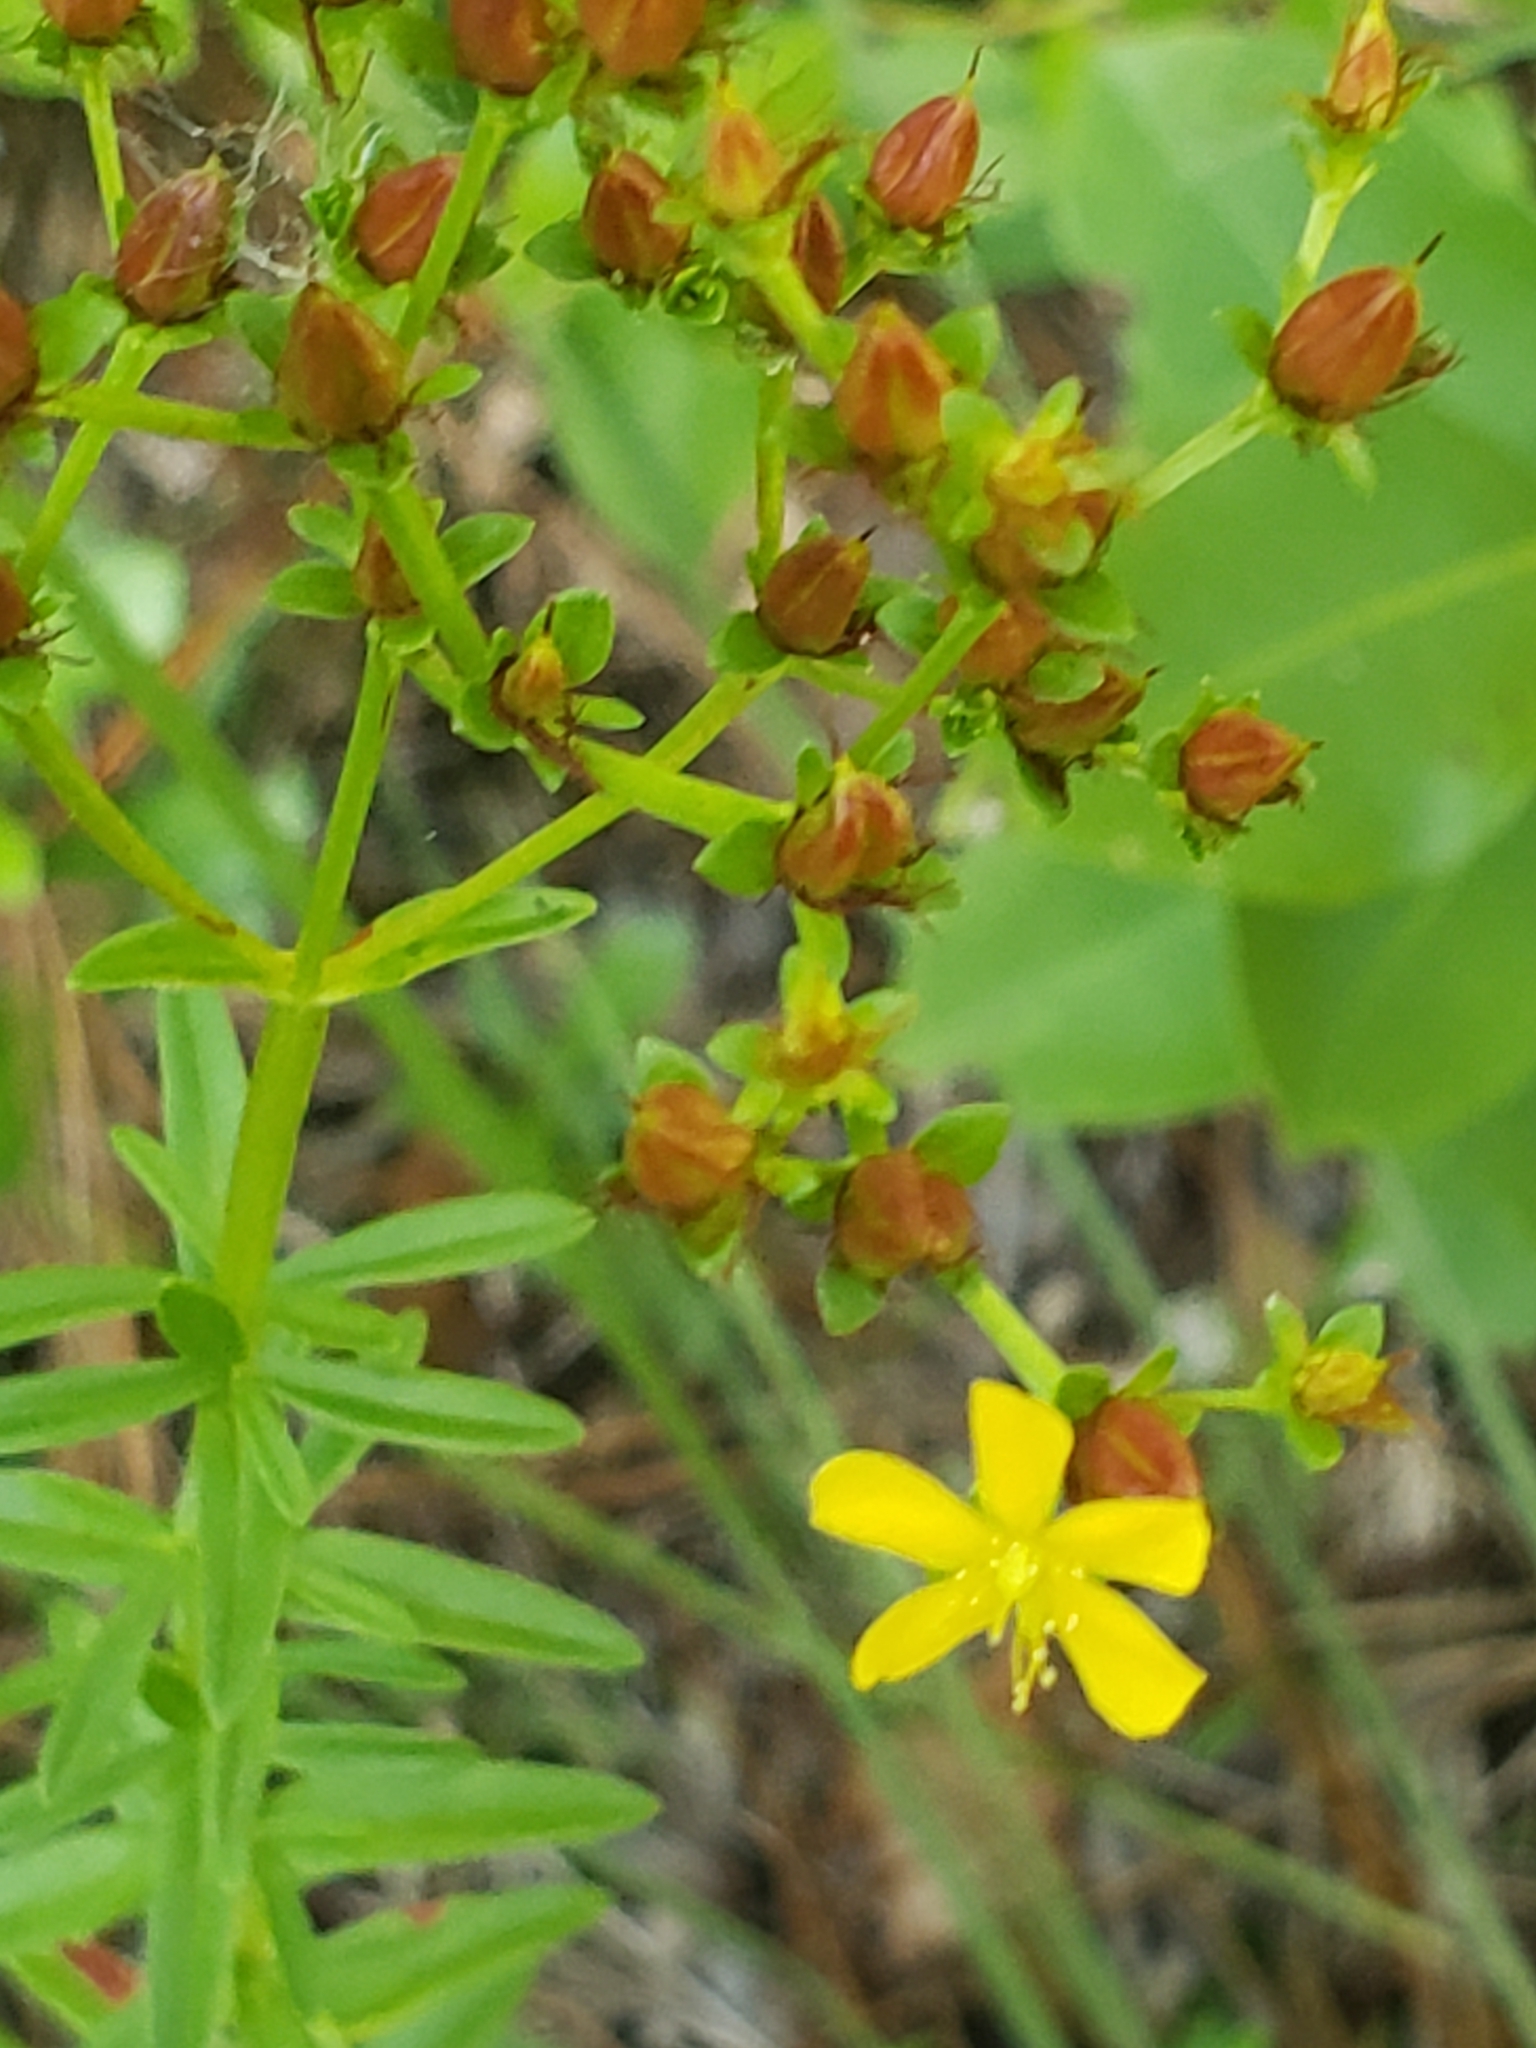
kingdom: Plantae
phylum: Tracheophyta
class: Magnoliopsida
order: Malpighiales
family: Hypericaceae
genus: Hypericum
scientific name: Hypericum cistifolium
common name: Round-pod st. john's-wort
